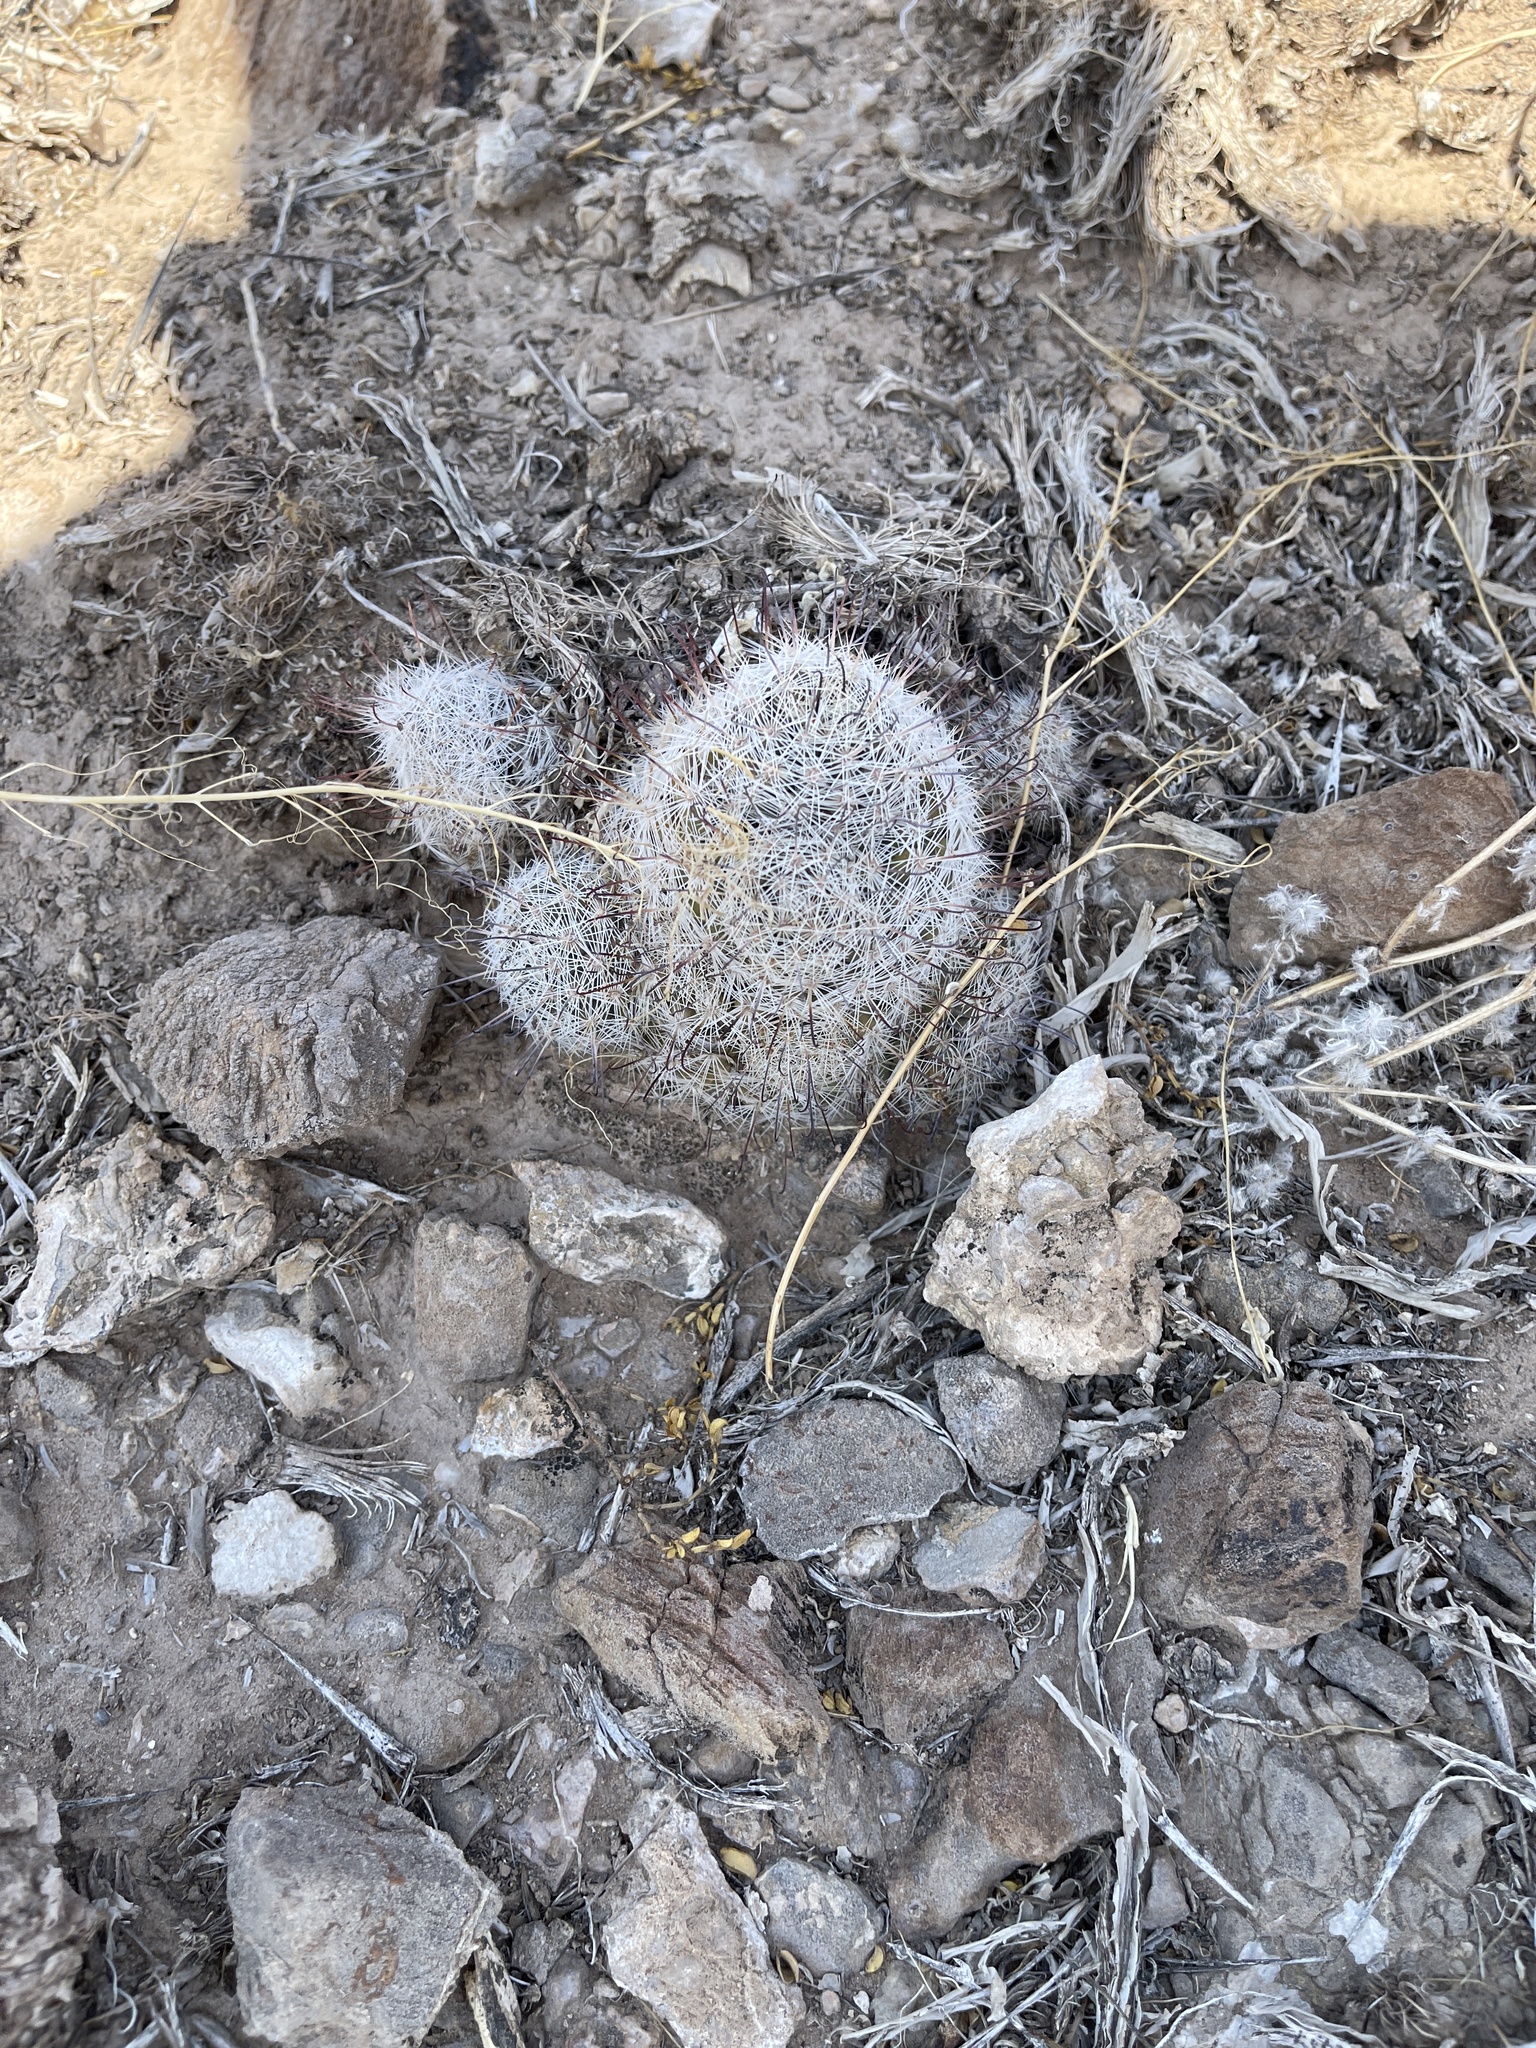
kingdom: Plantae
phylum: Tracheophyta
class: Magnoliopsida
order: Caryophyllales
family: Cactaceae
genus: Cochemiea
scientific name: Cochemiea grahamii
